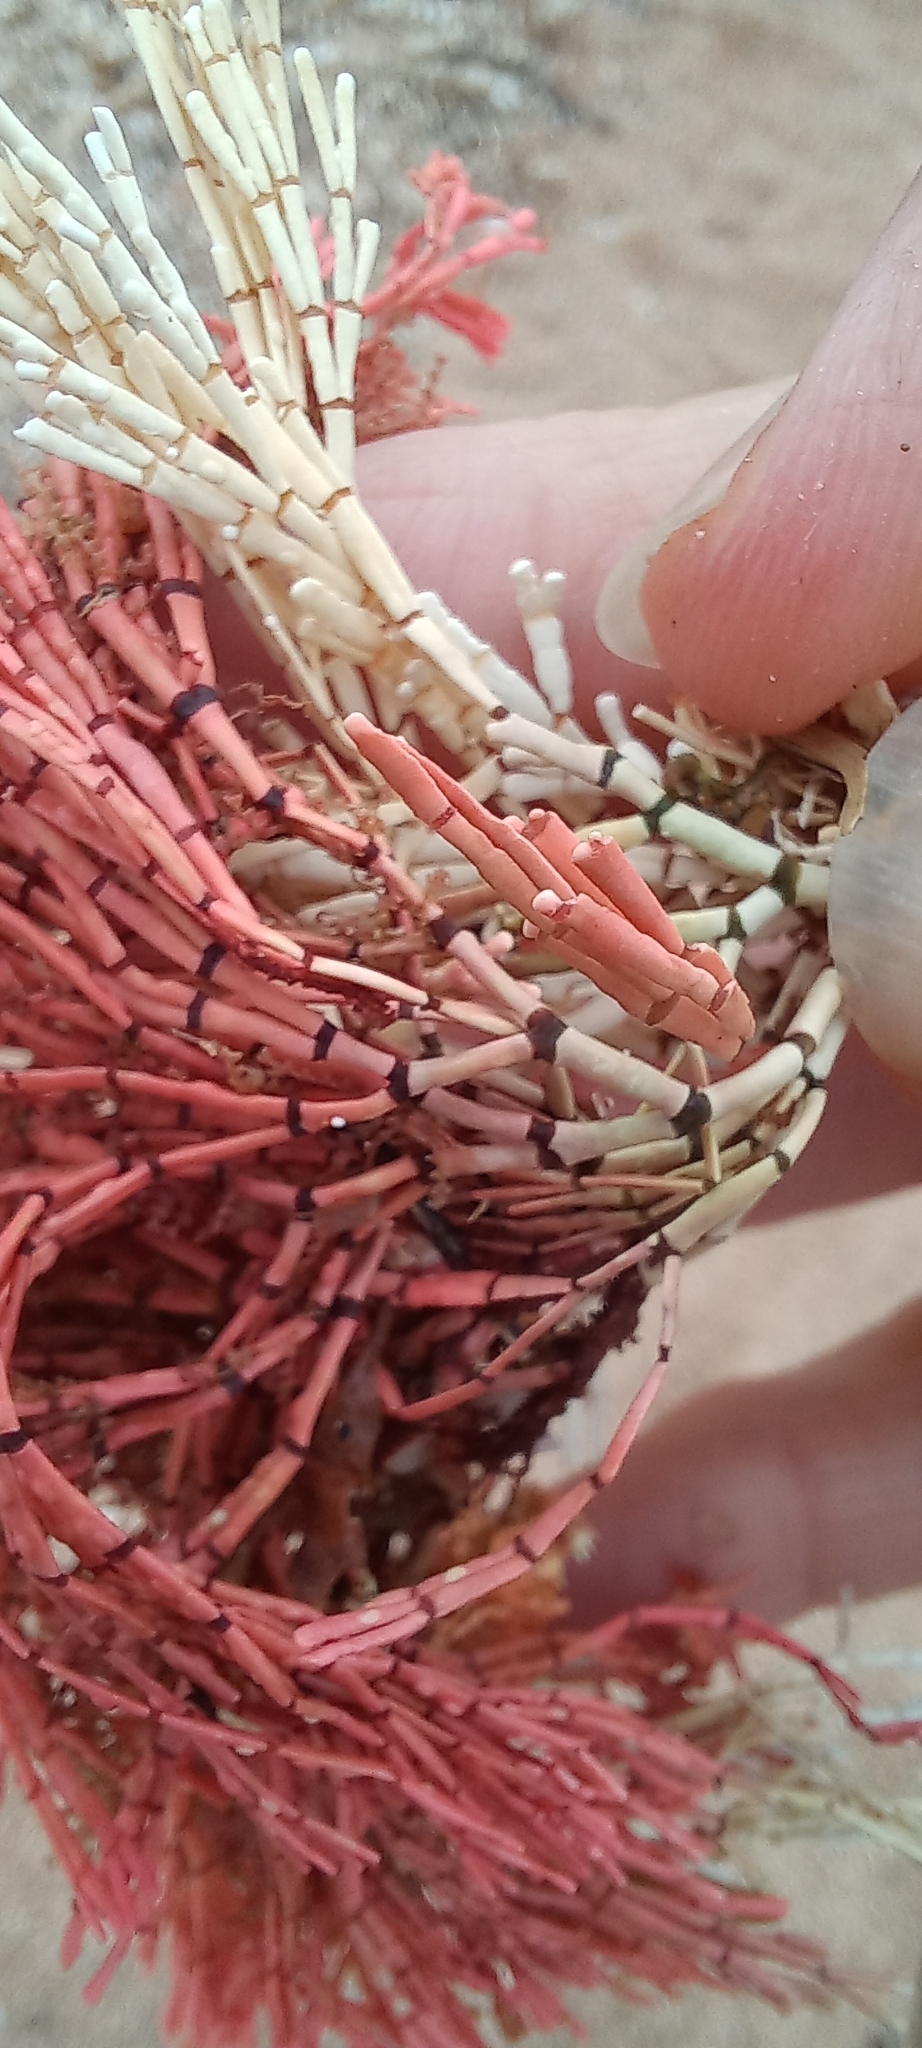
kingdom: Plantae
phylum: Rhodophyta
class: Florideophyceae
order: Corallinales
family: Corallinaceae
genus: Corallina
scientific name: Corallina Amphiroa ephedraea
